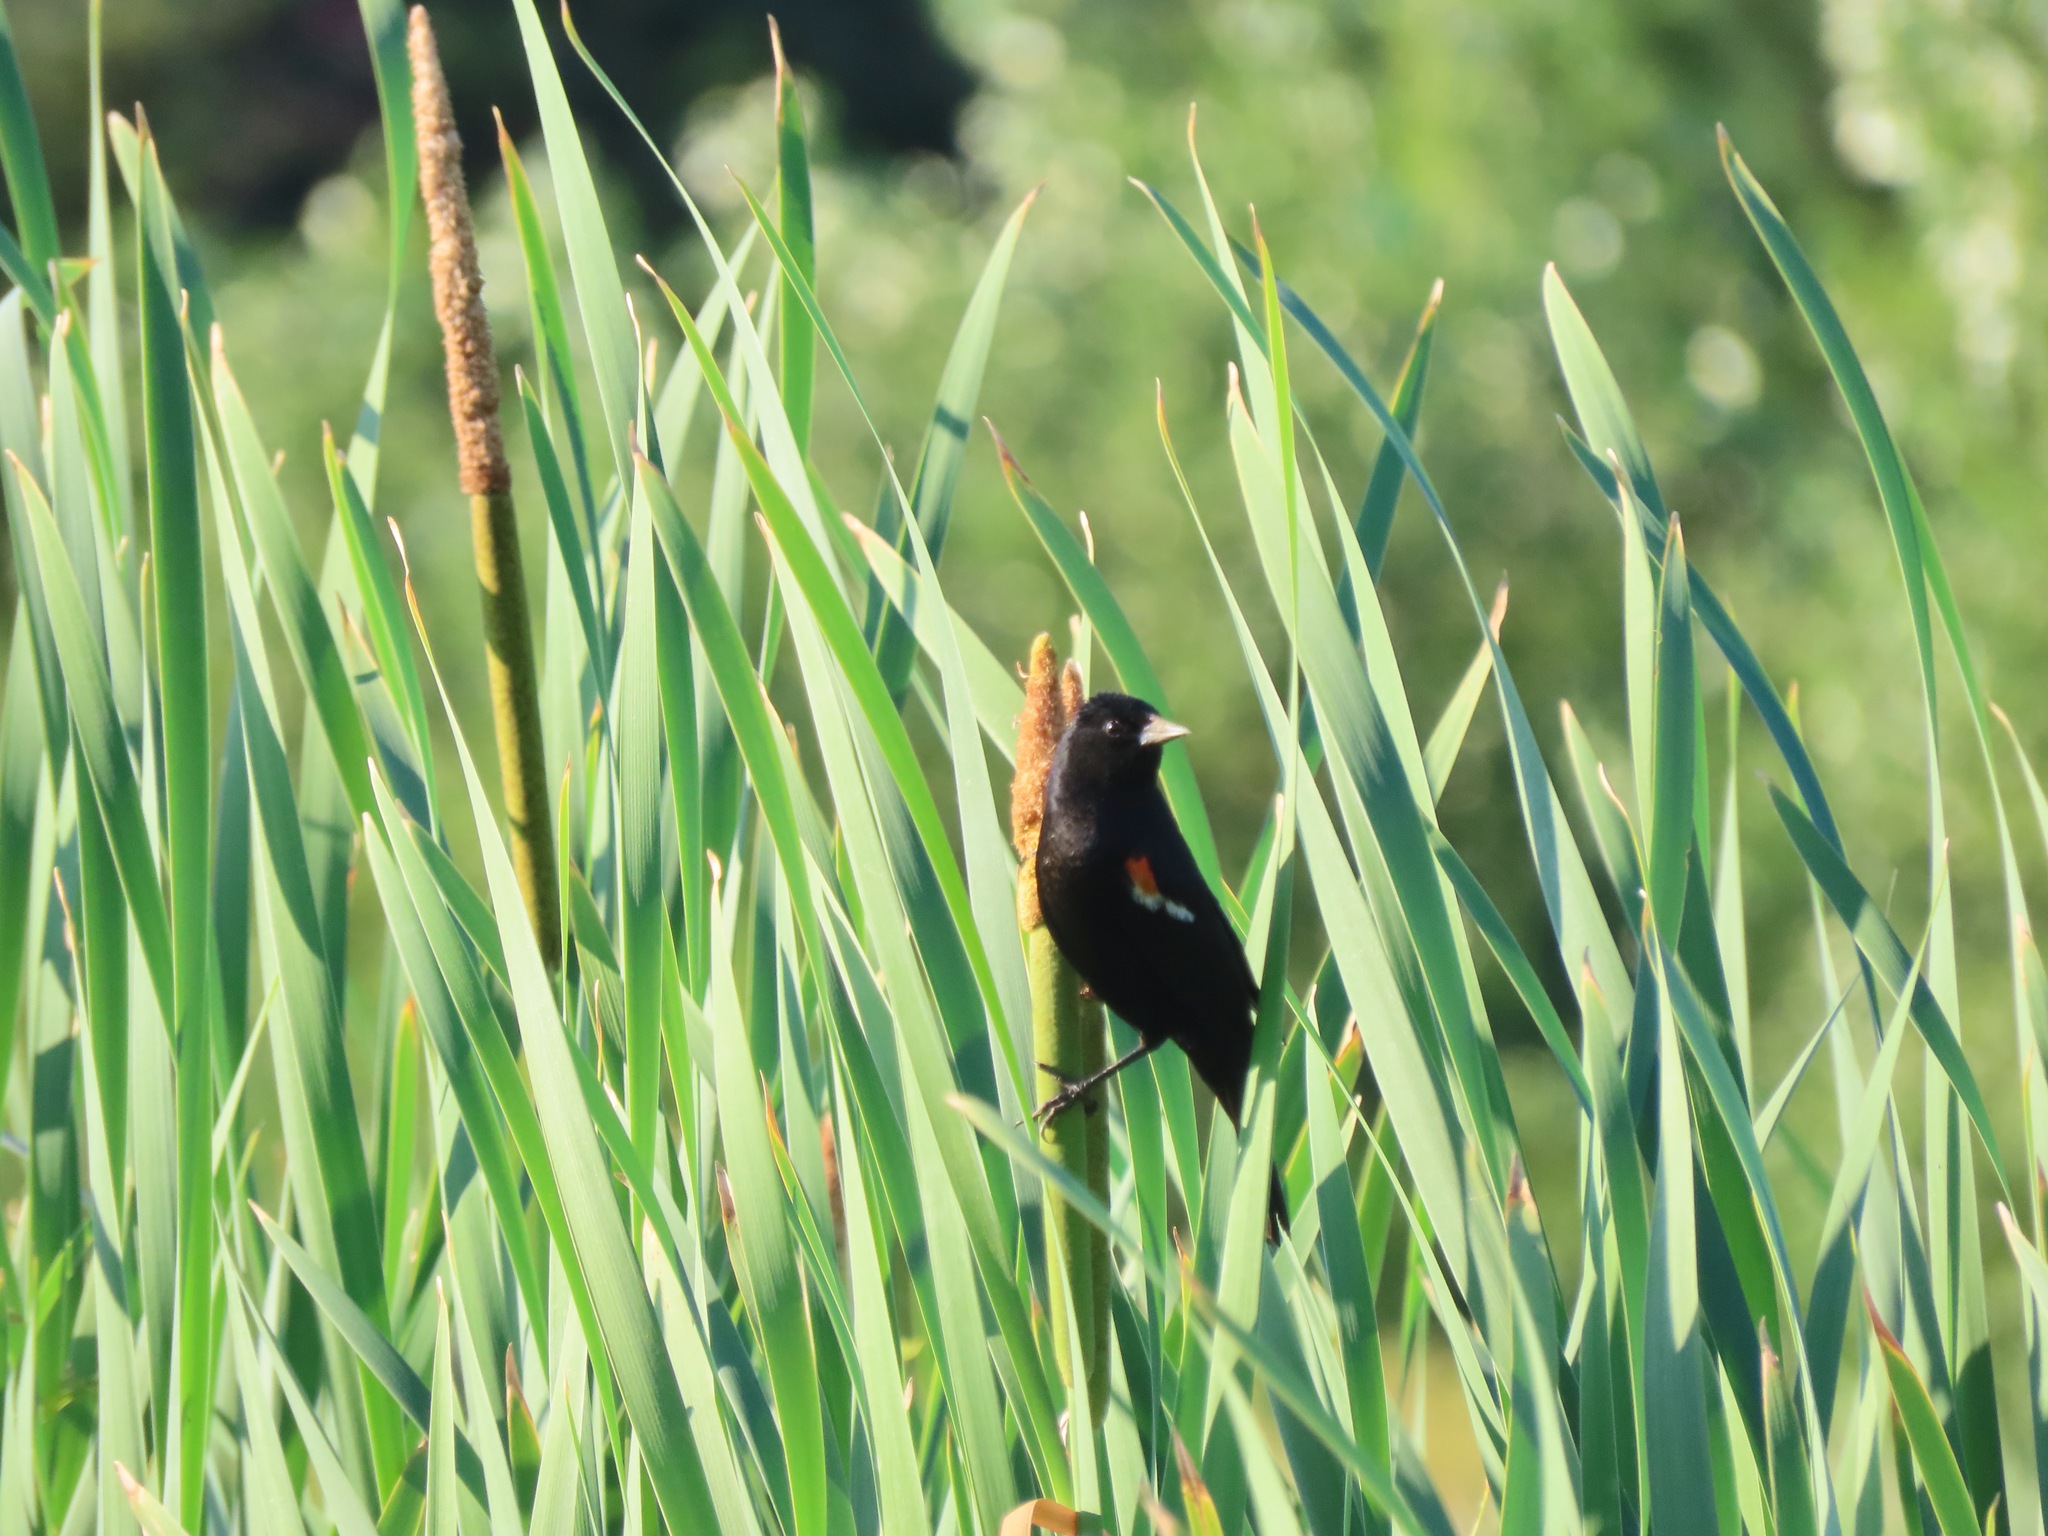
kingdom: Animalia
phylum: Chordata
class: Aves
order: Passeriformes
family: Icteridae
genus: Agelaius
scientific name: Agelaius phoeniceus
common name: Red-winged blackbird
